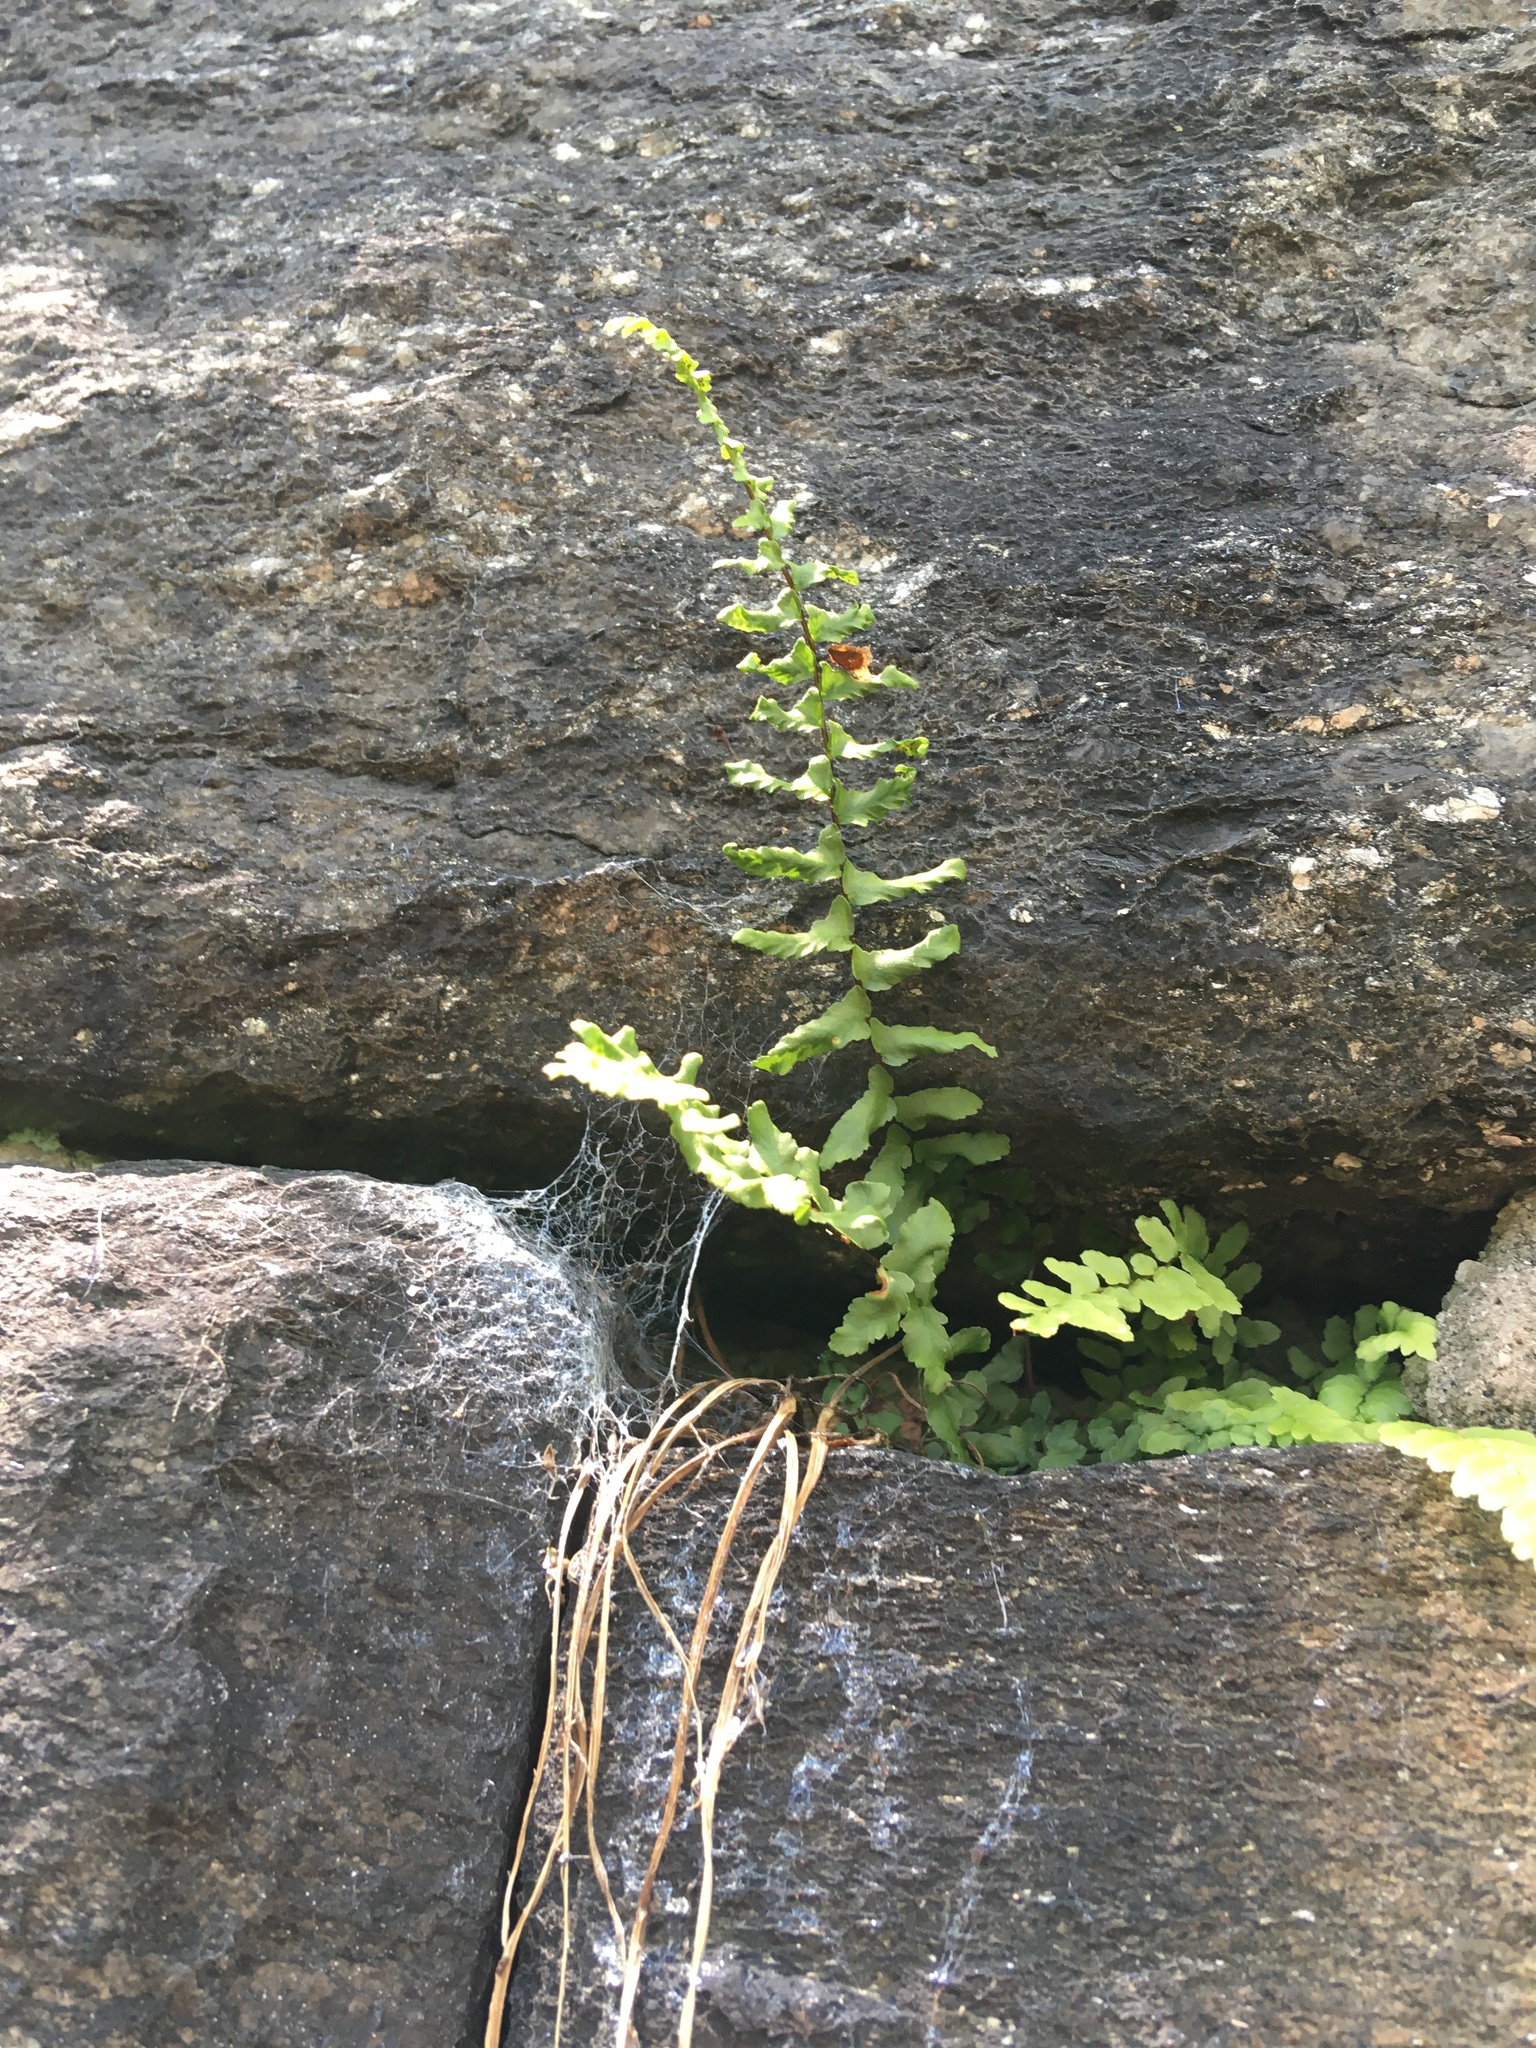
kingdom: Plantae
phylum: Tracheophyta
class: Polypodiopsida
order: Polypodiales
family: Aspleniaceae
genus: Asplenium
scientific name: Asplenium platyneuron
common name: Ebony spleenwort
